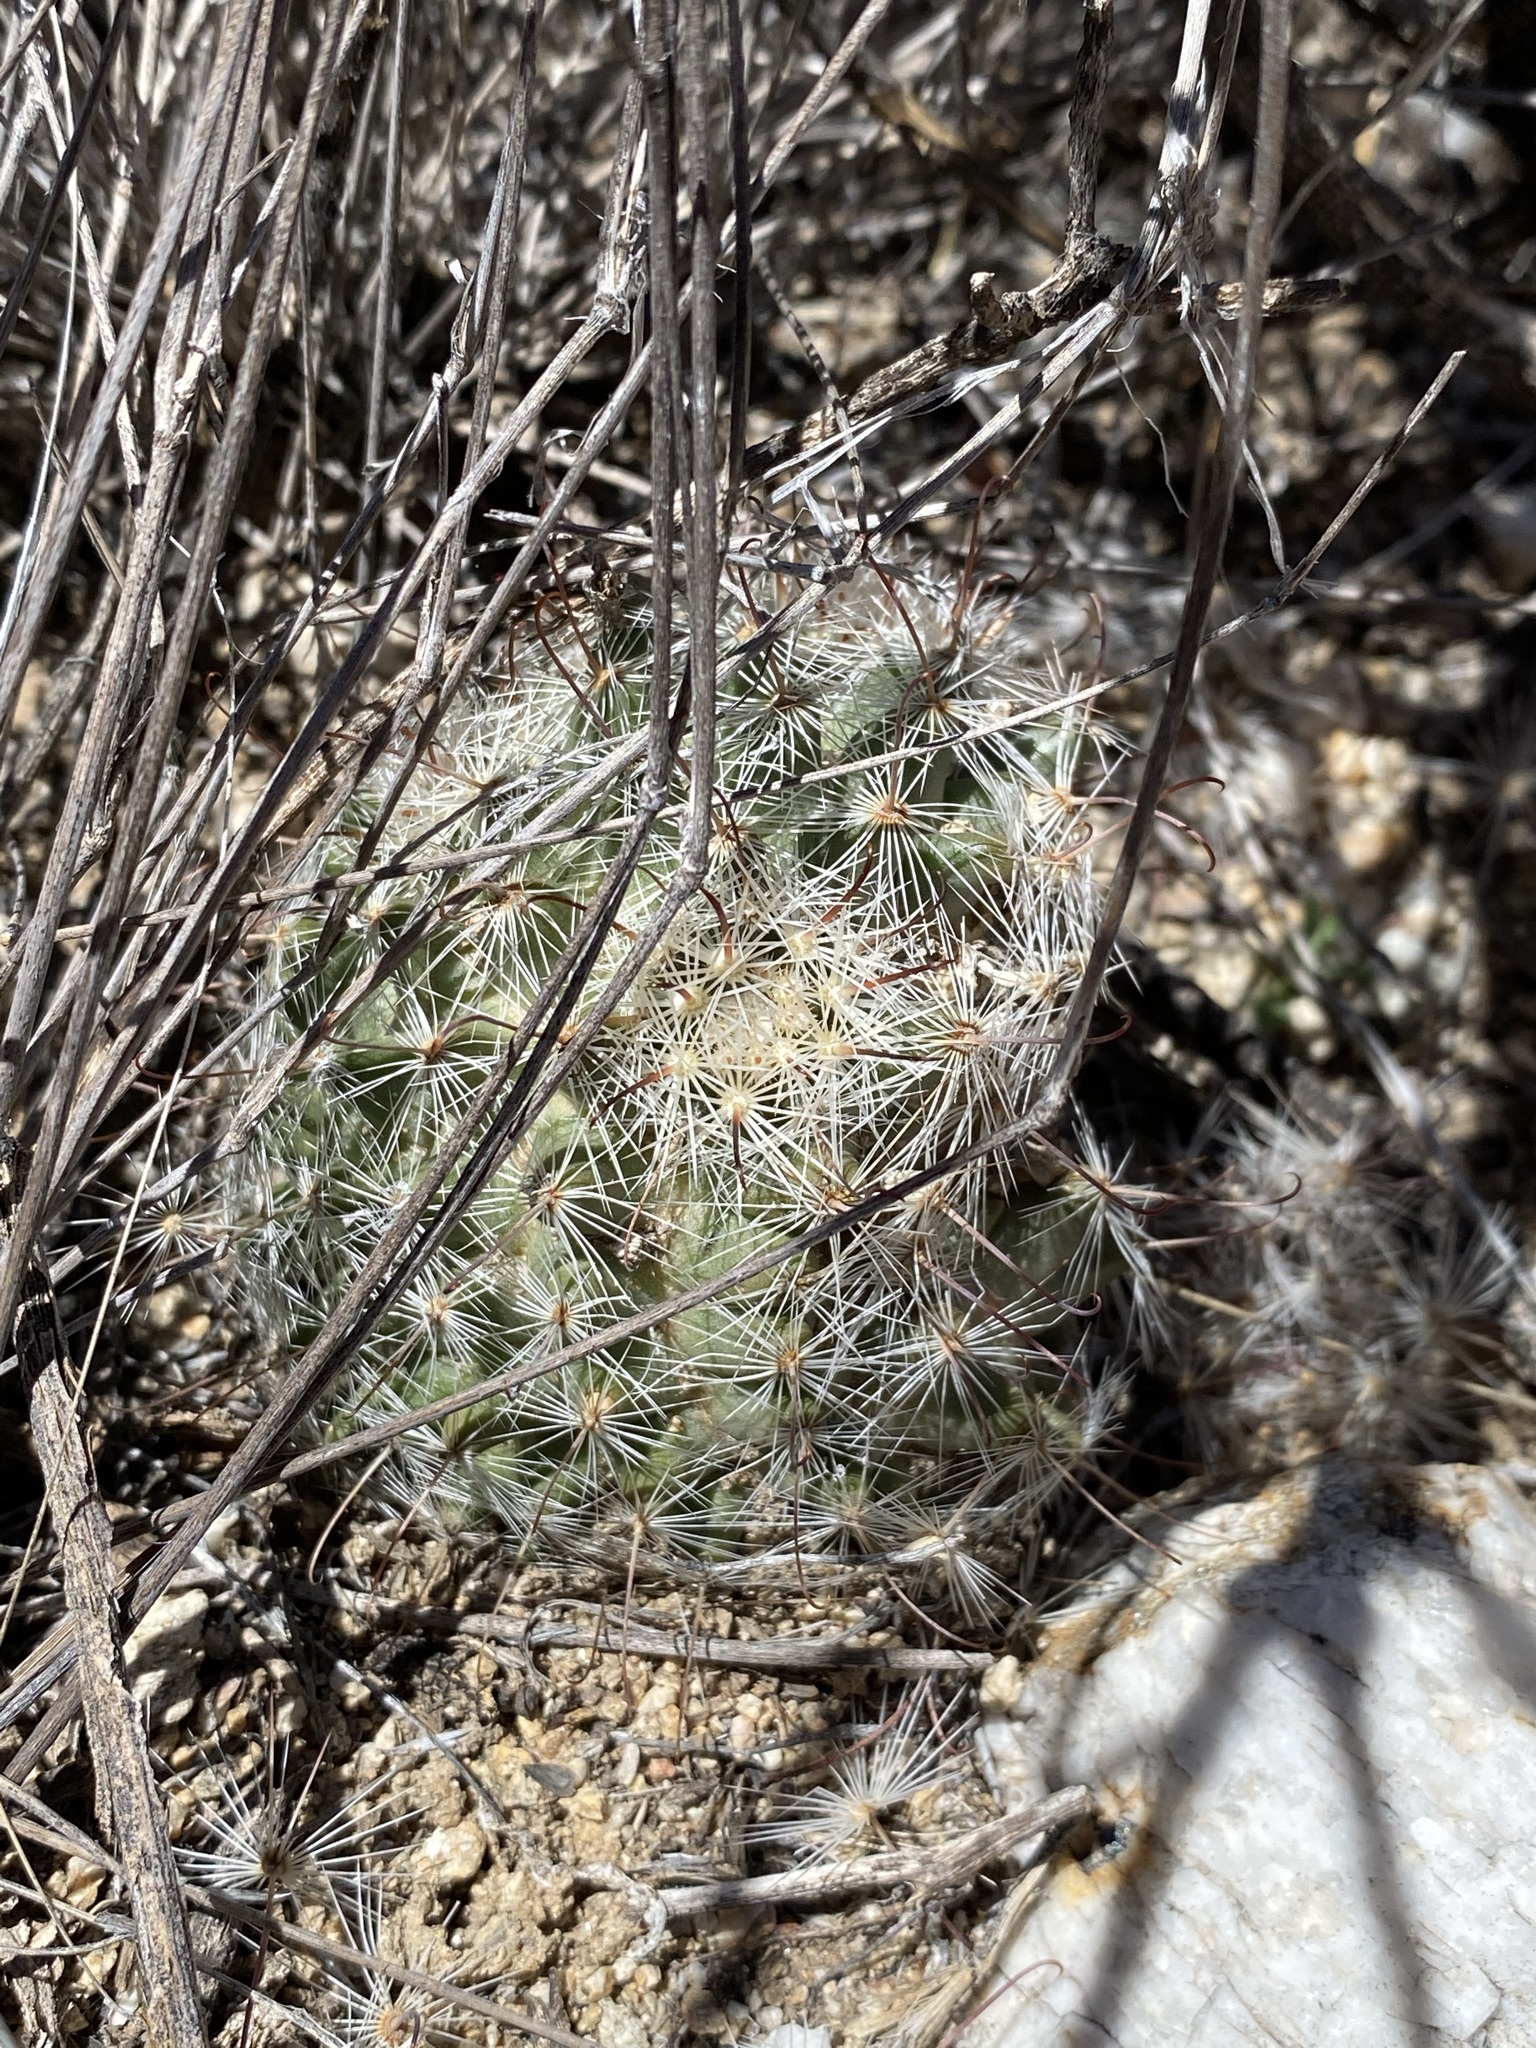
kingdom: Plantae
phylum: Tracheophyta
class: Magnoliopsida
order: Caryophyllales
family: Cactaceae
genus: Cochemiea
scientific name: Cochemiea grahamii
